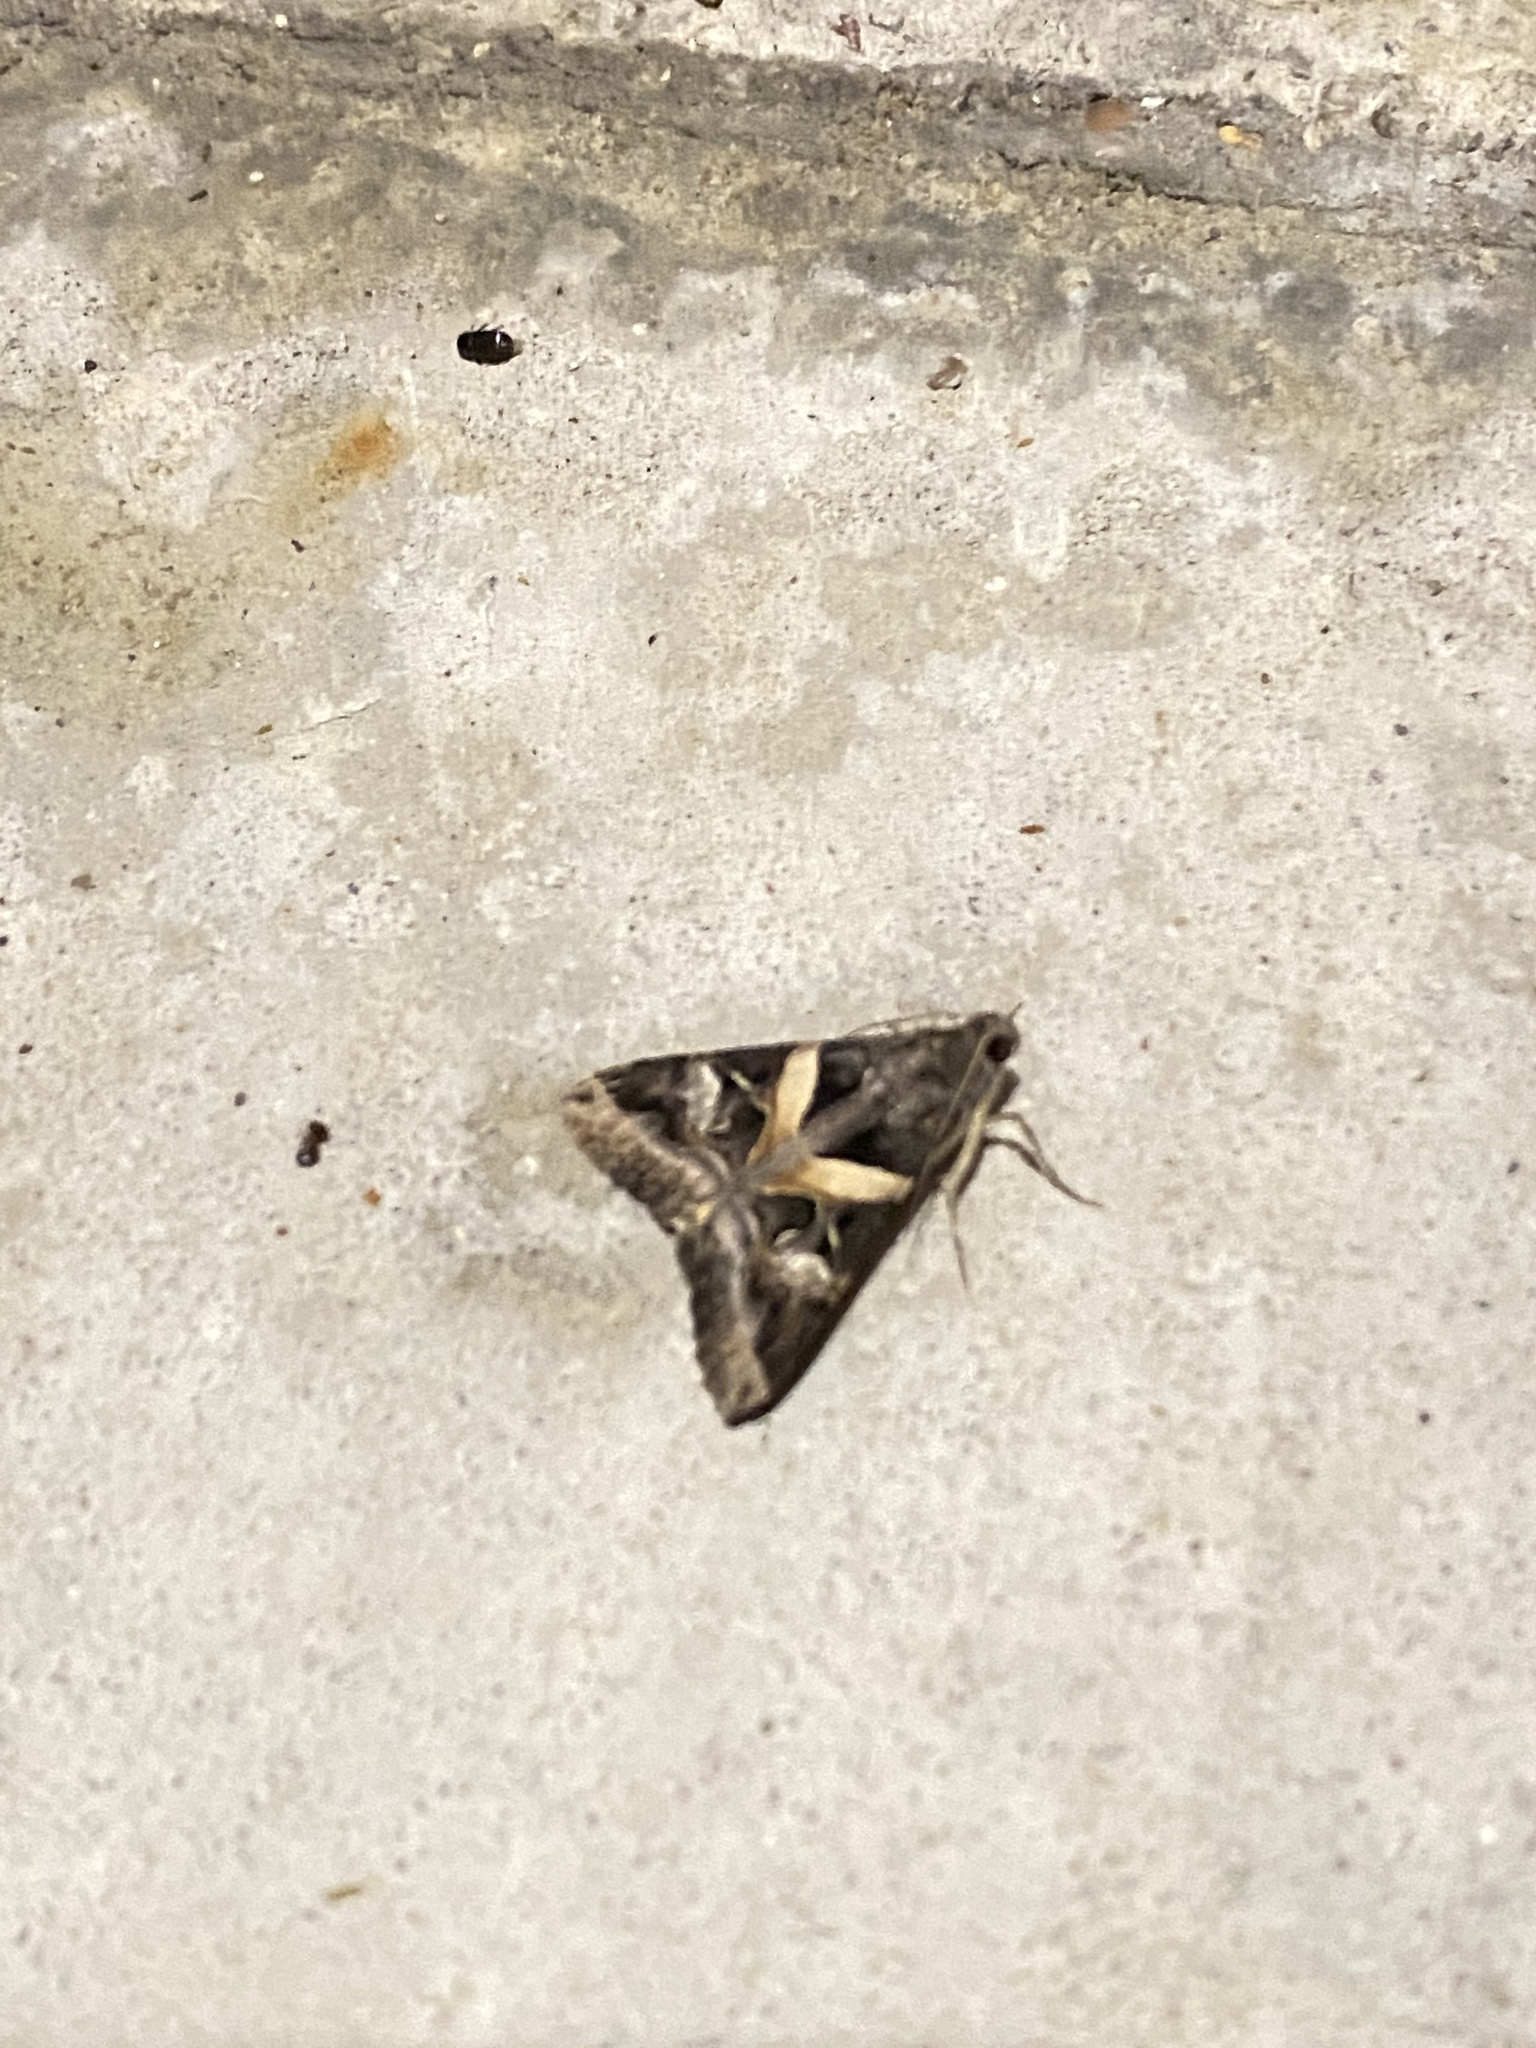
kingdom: Animalia
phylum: Arthropoda
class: Insecta
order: Lepidoptera
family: Erebidae
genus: Melipotis
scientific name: Melipotis indomita
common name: Moth
